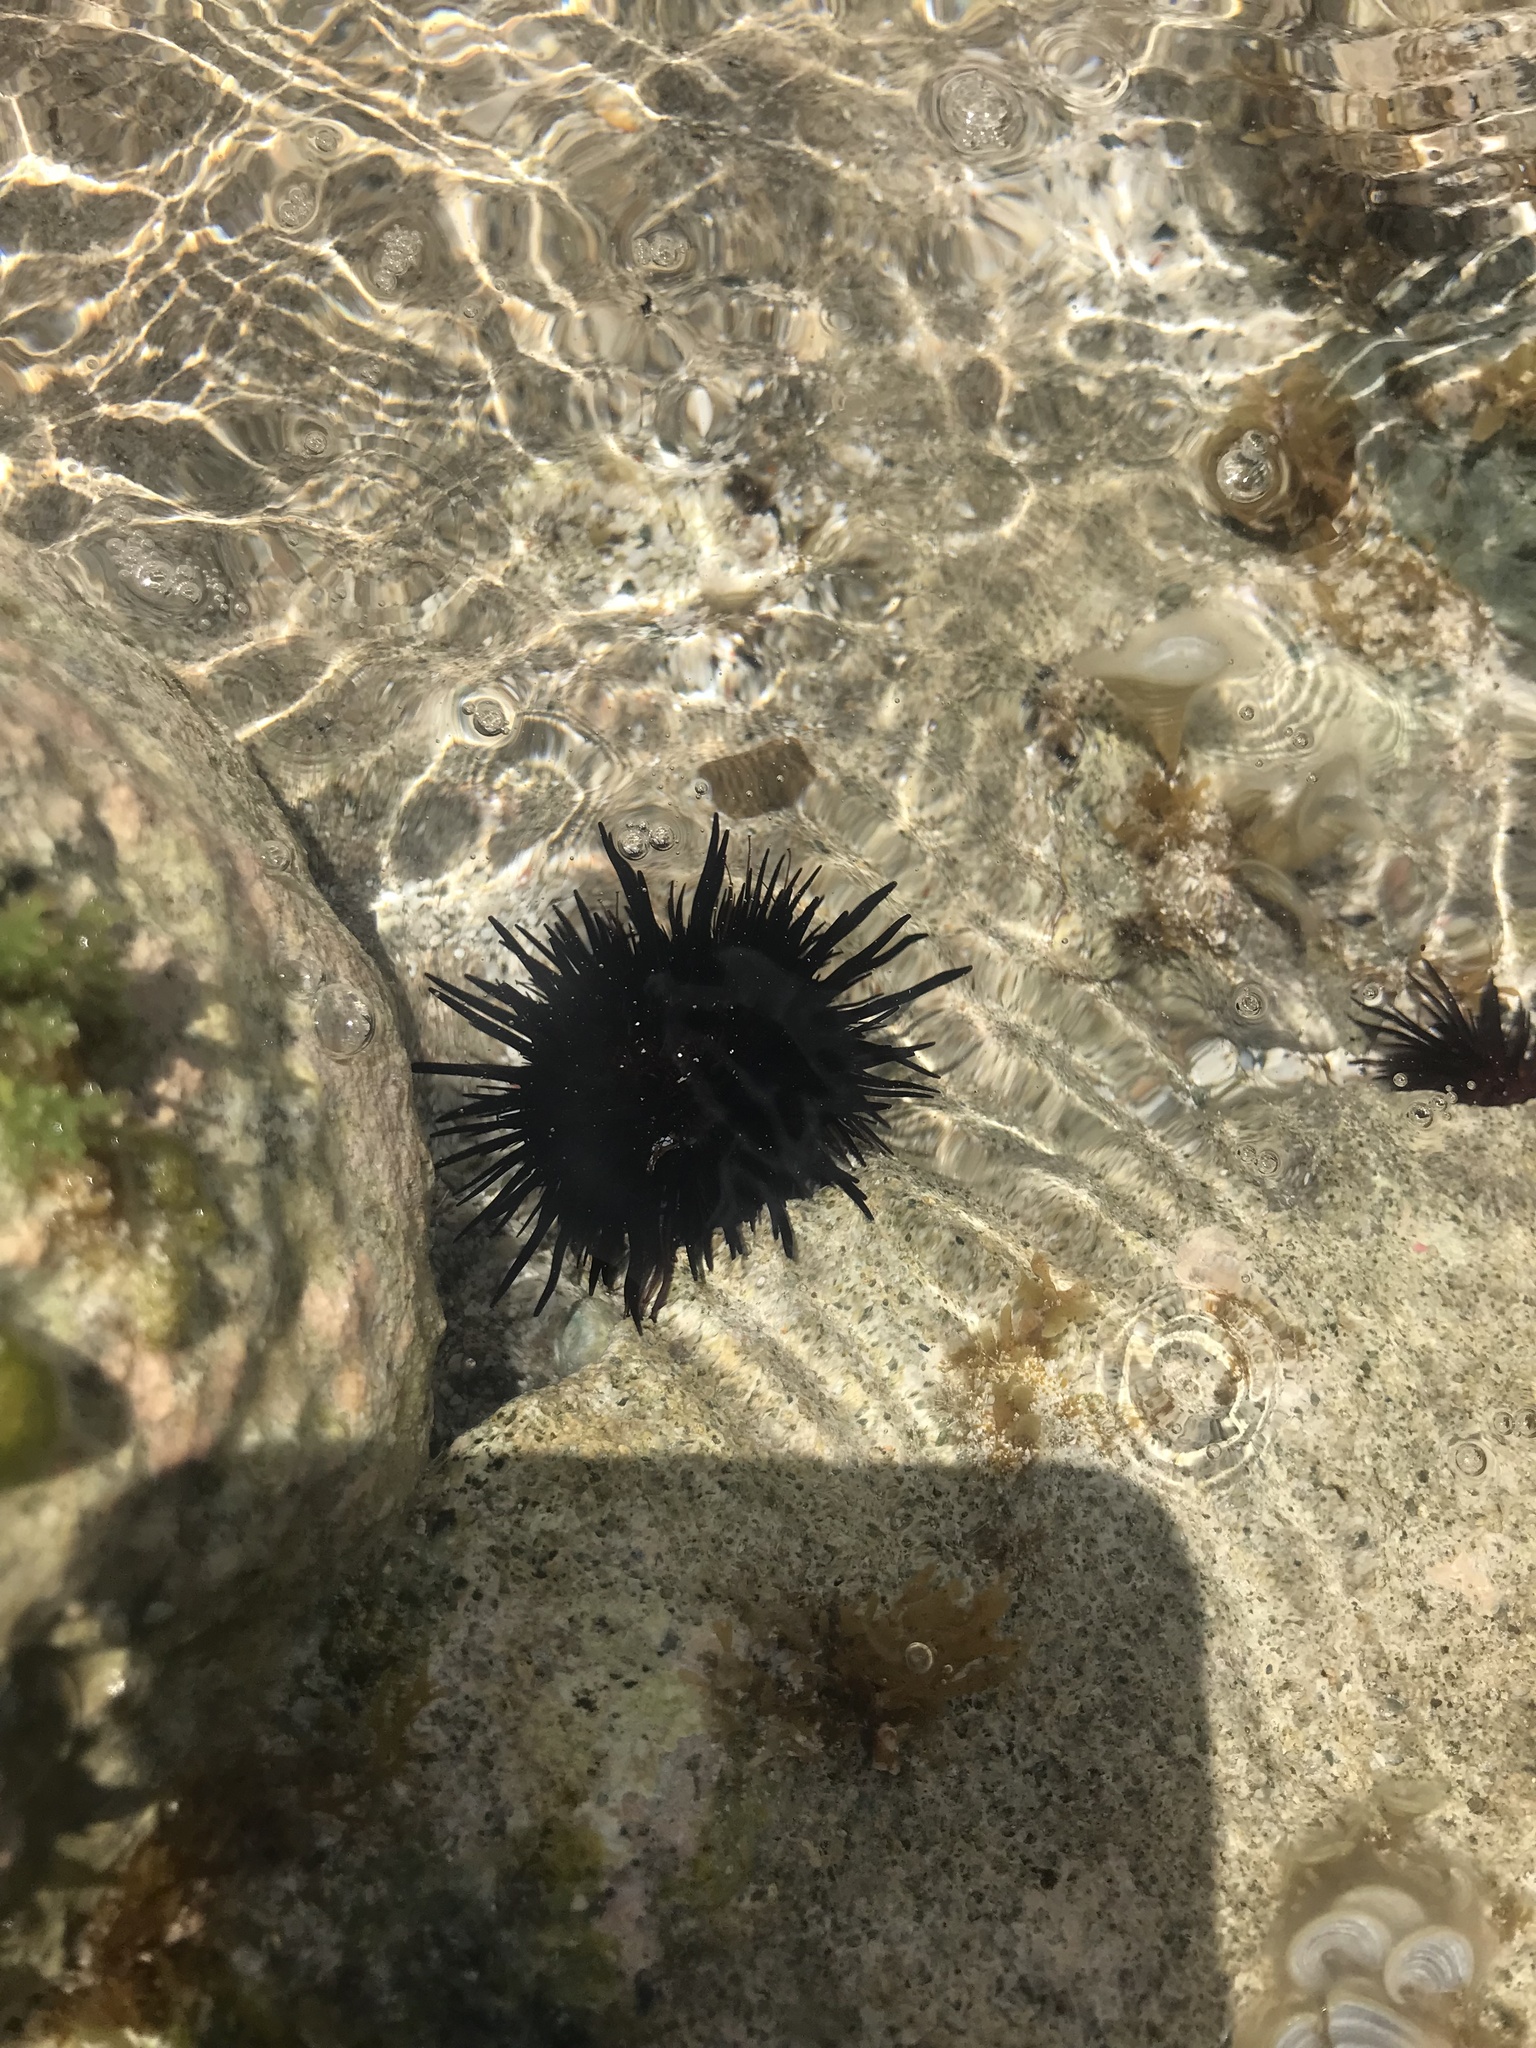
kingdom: Animalia
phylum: Echinodermata
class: Echinoidea
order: Camarodonta
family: Echinometridae
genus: Echinometra
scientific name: Echinometra lucunter
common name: Rock urchin
